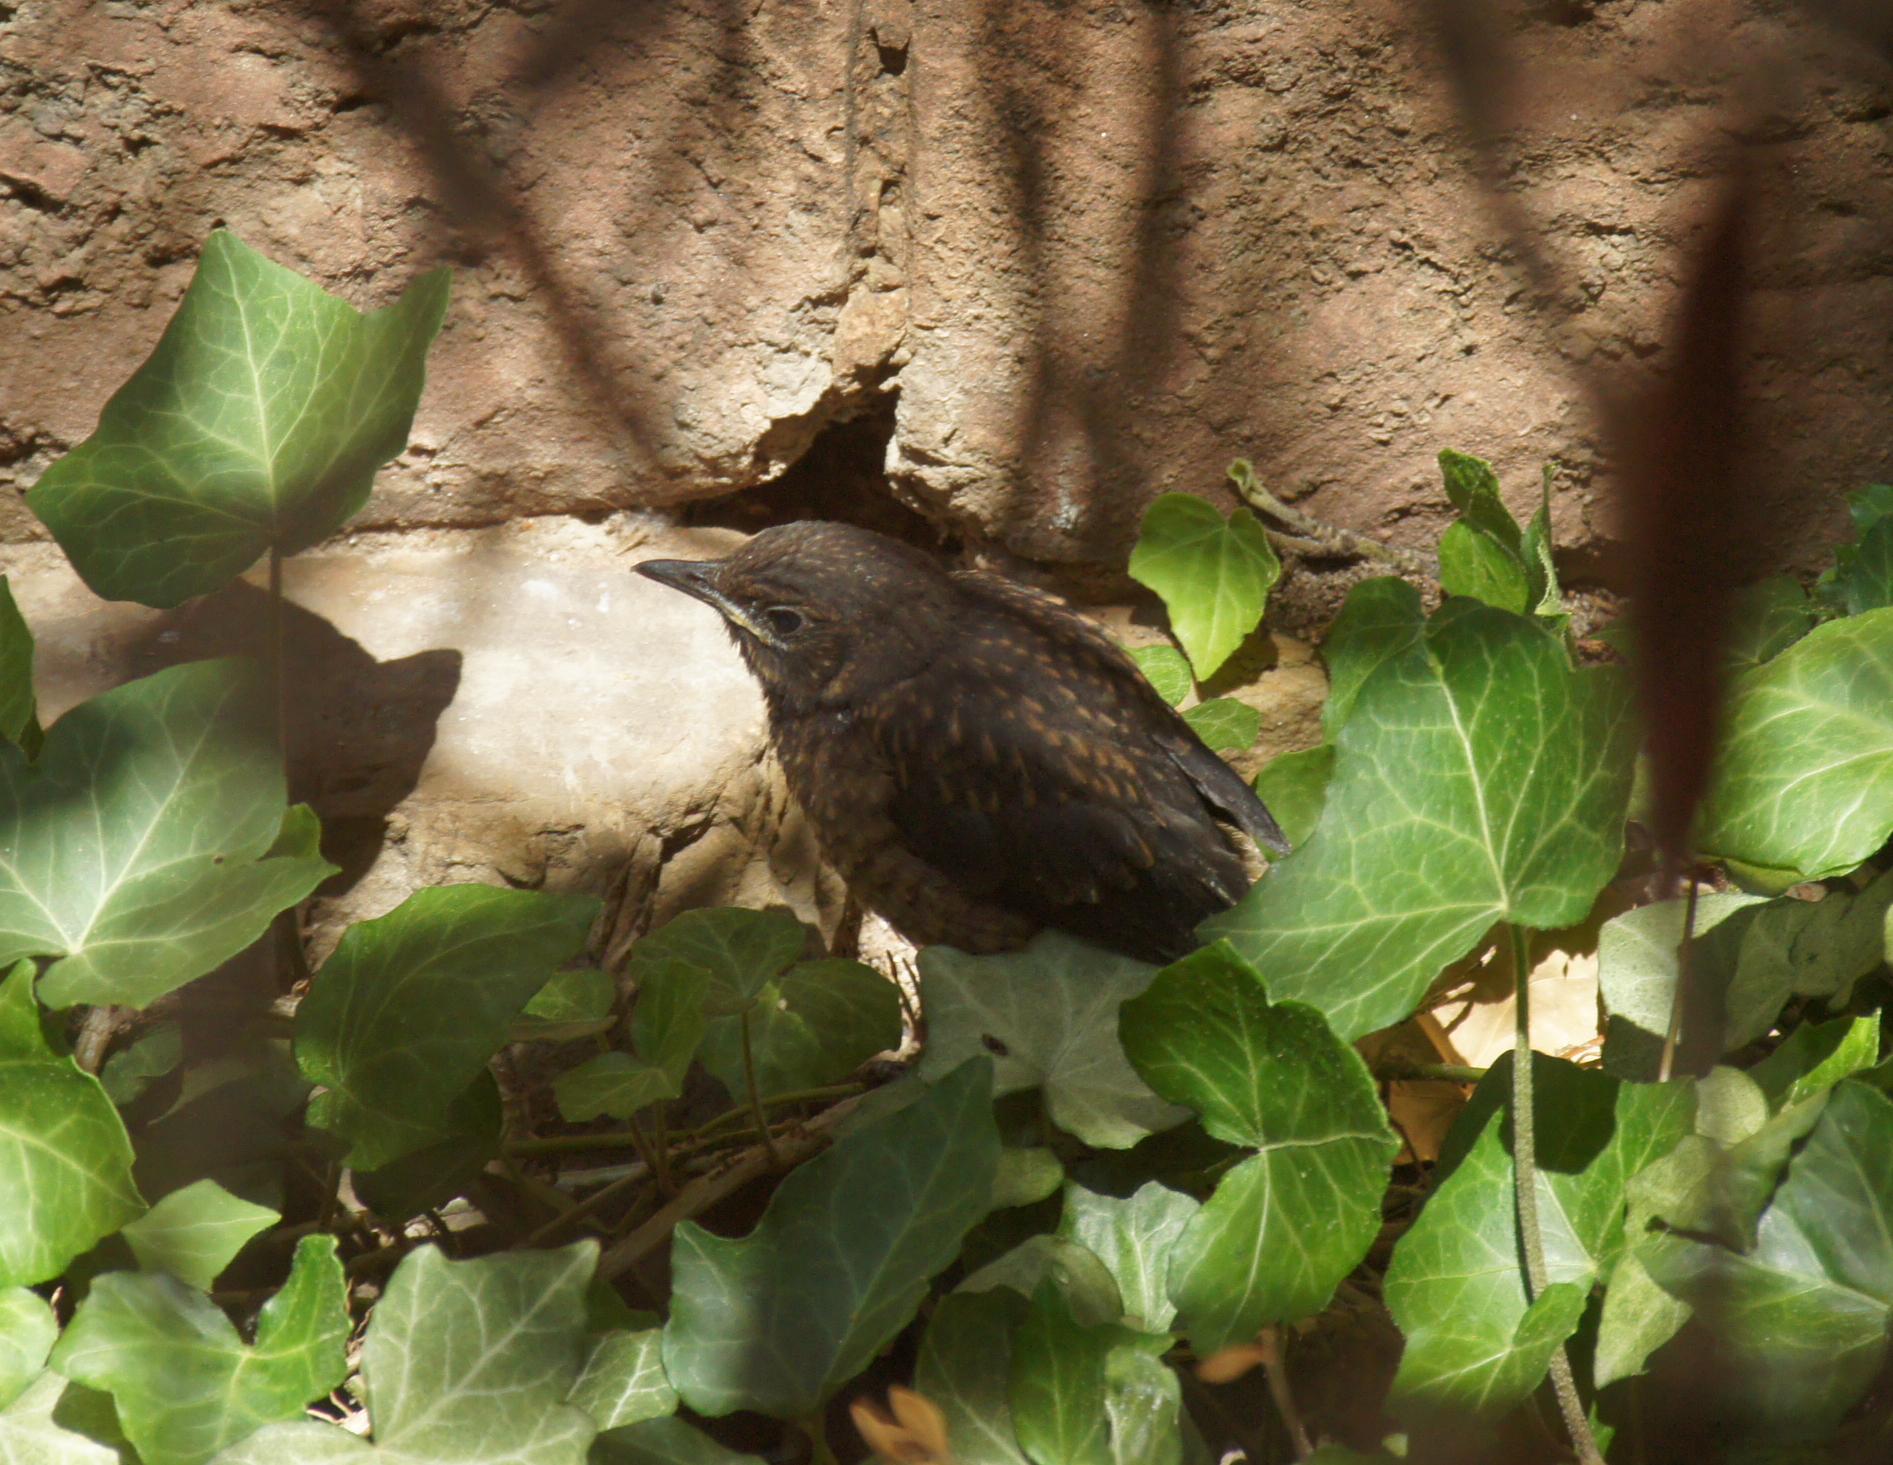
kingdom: Animalia
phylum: Chordata
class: Aves
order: Passeriformes
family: Turdidae
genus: Turdus
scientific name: Turdus merula
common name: Common blackbird
